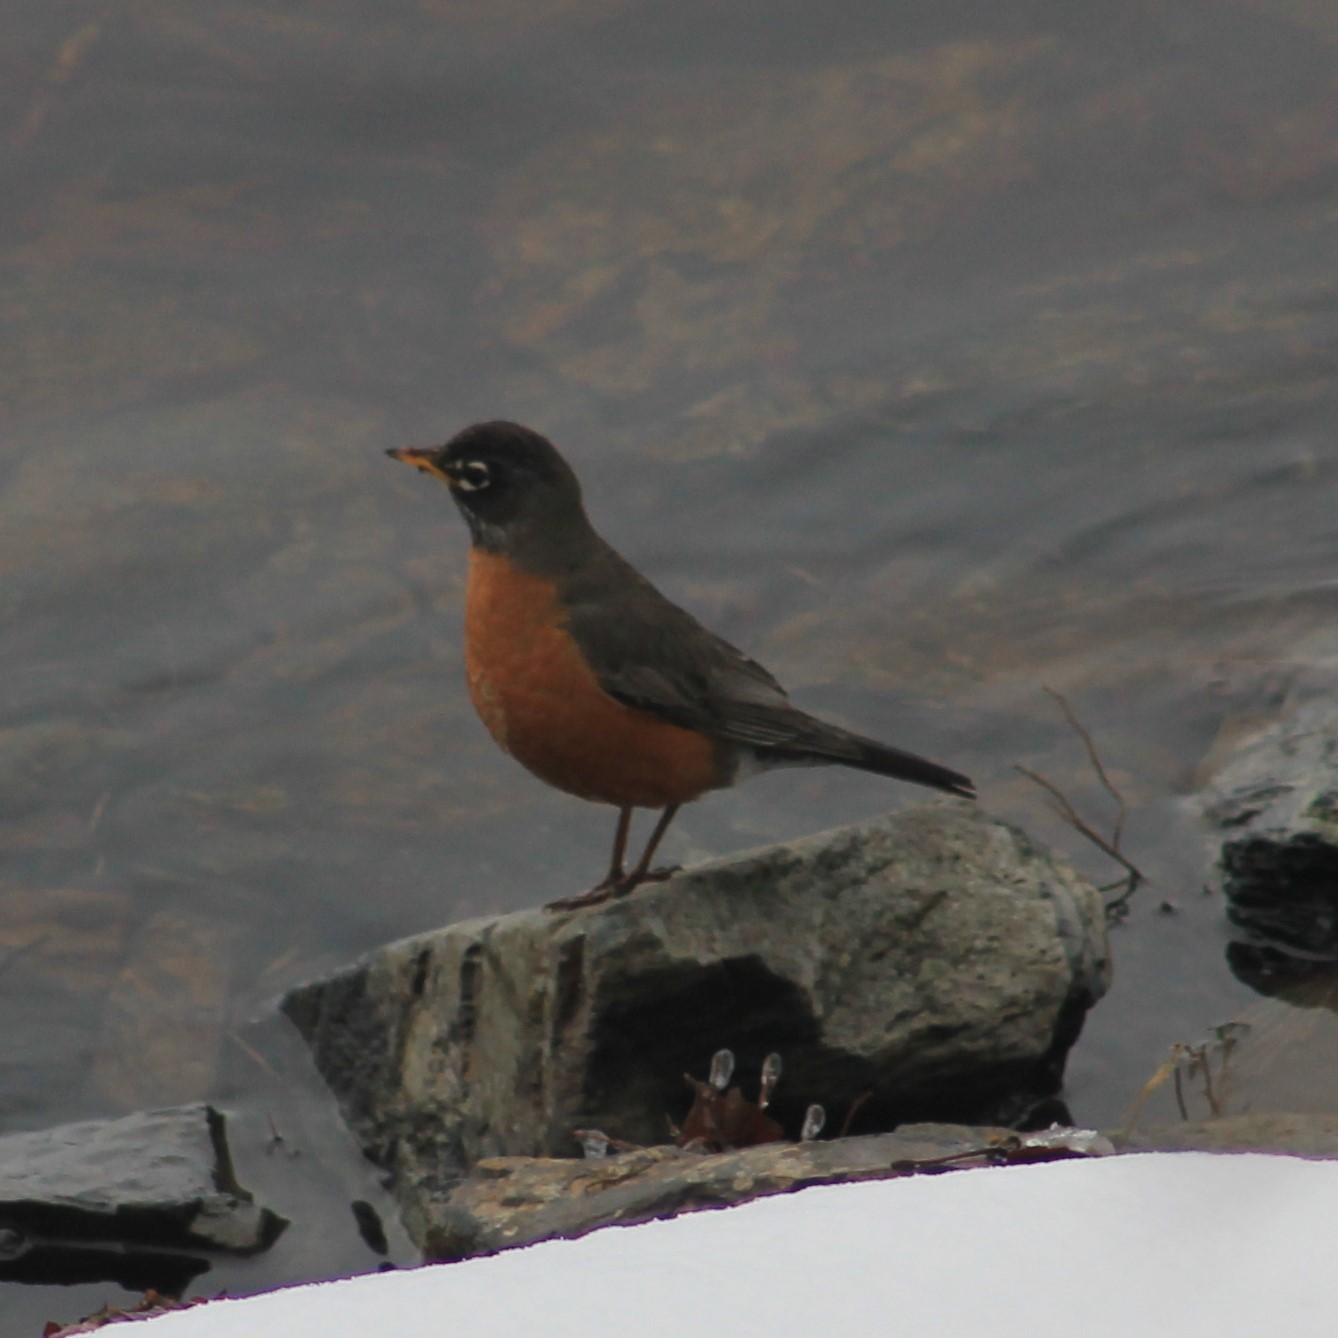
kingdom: Animalia
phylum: Chordata
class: Aves
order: Passeriformes
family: Turdidae
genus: Turdus
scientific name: Turdus migratorius
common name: American robin
